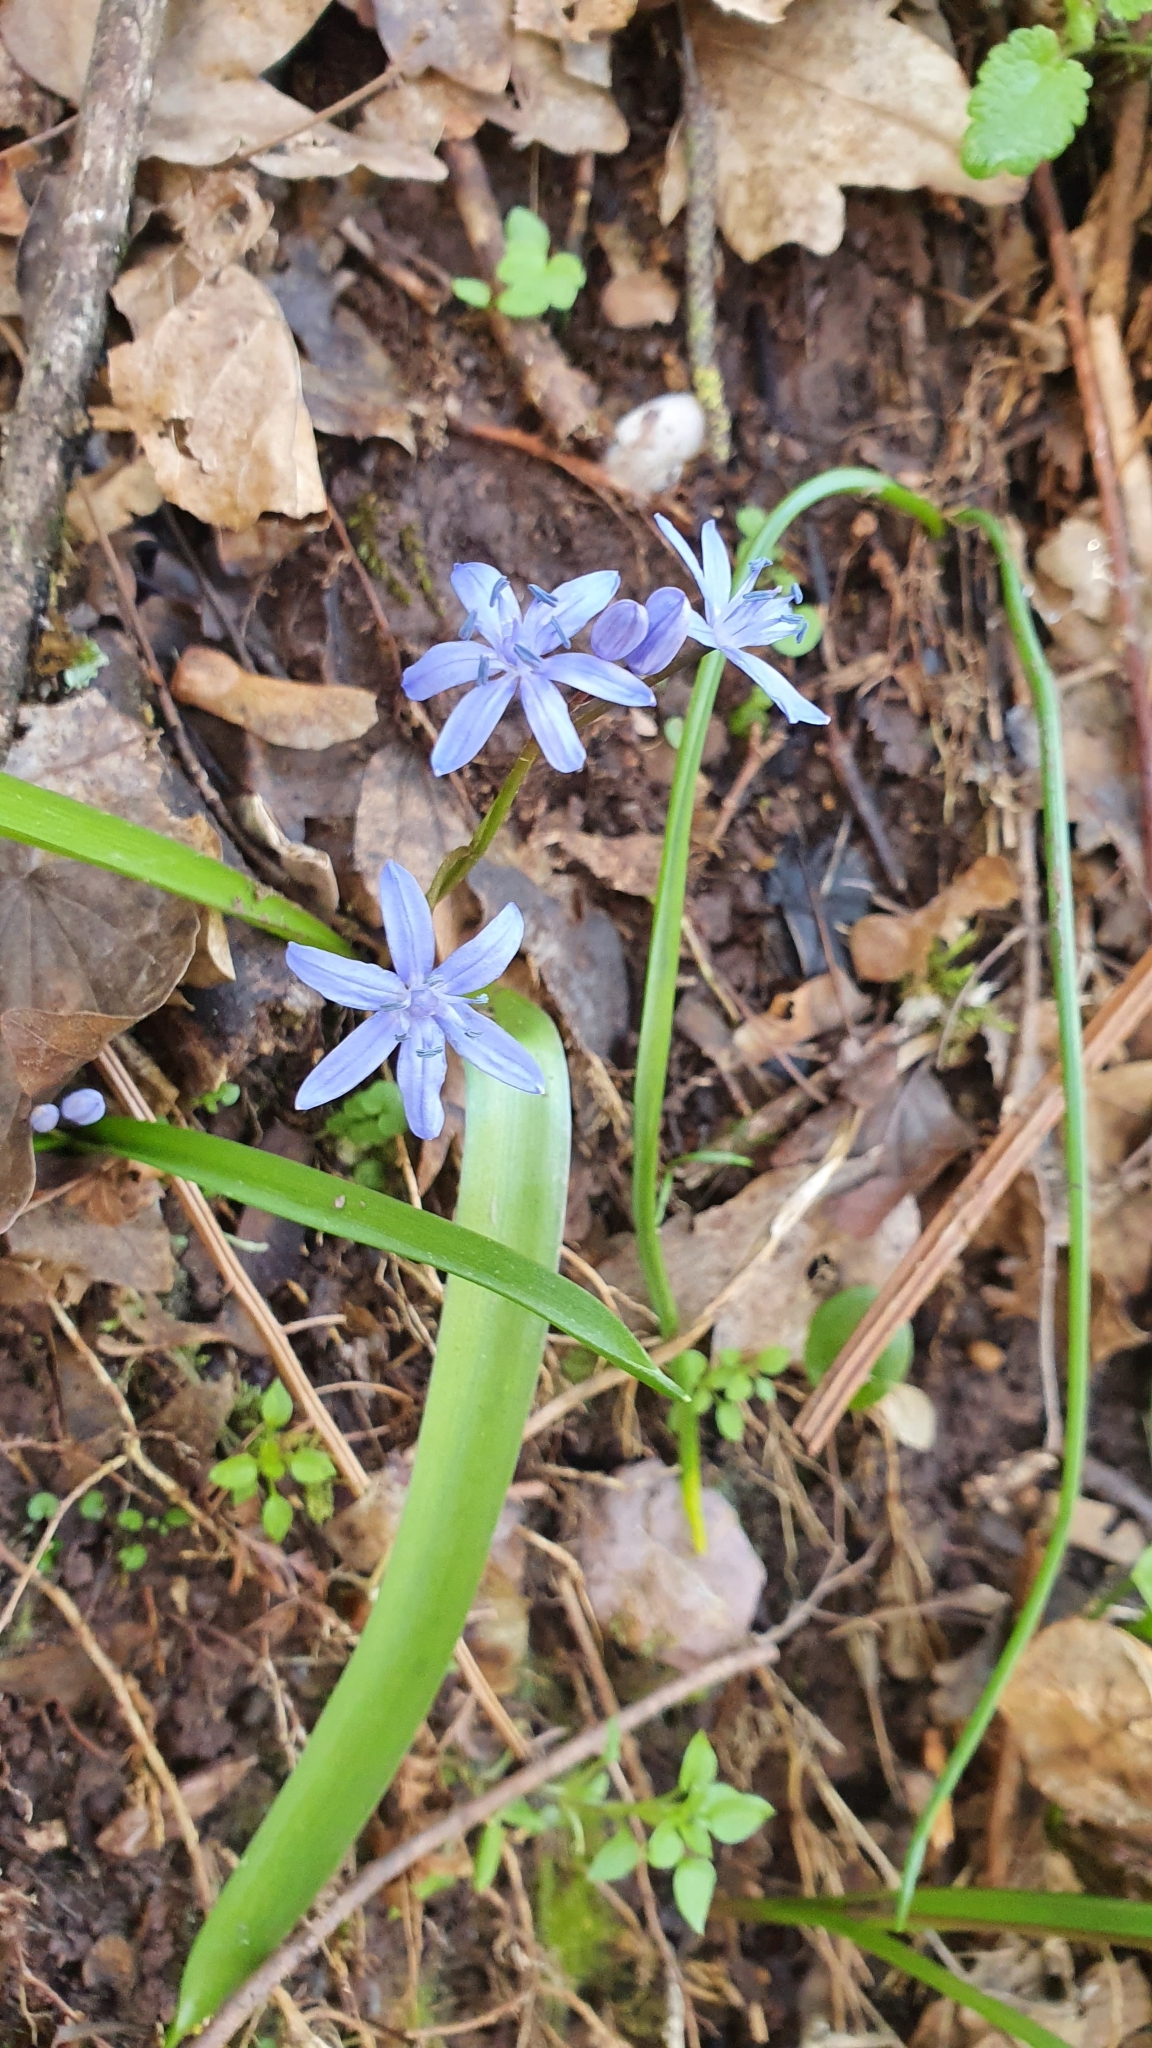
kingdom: Plantae
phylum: Tracheophyta
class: Liliopsida
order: Asparagales
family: Asparagaceae
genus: Scilla
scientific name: Scilla bifolia
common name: Alpine squill
